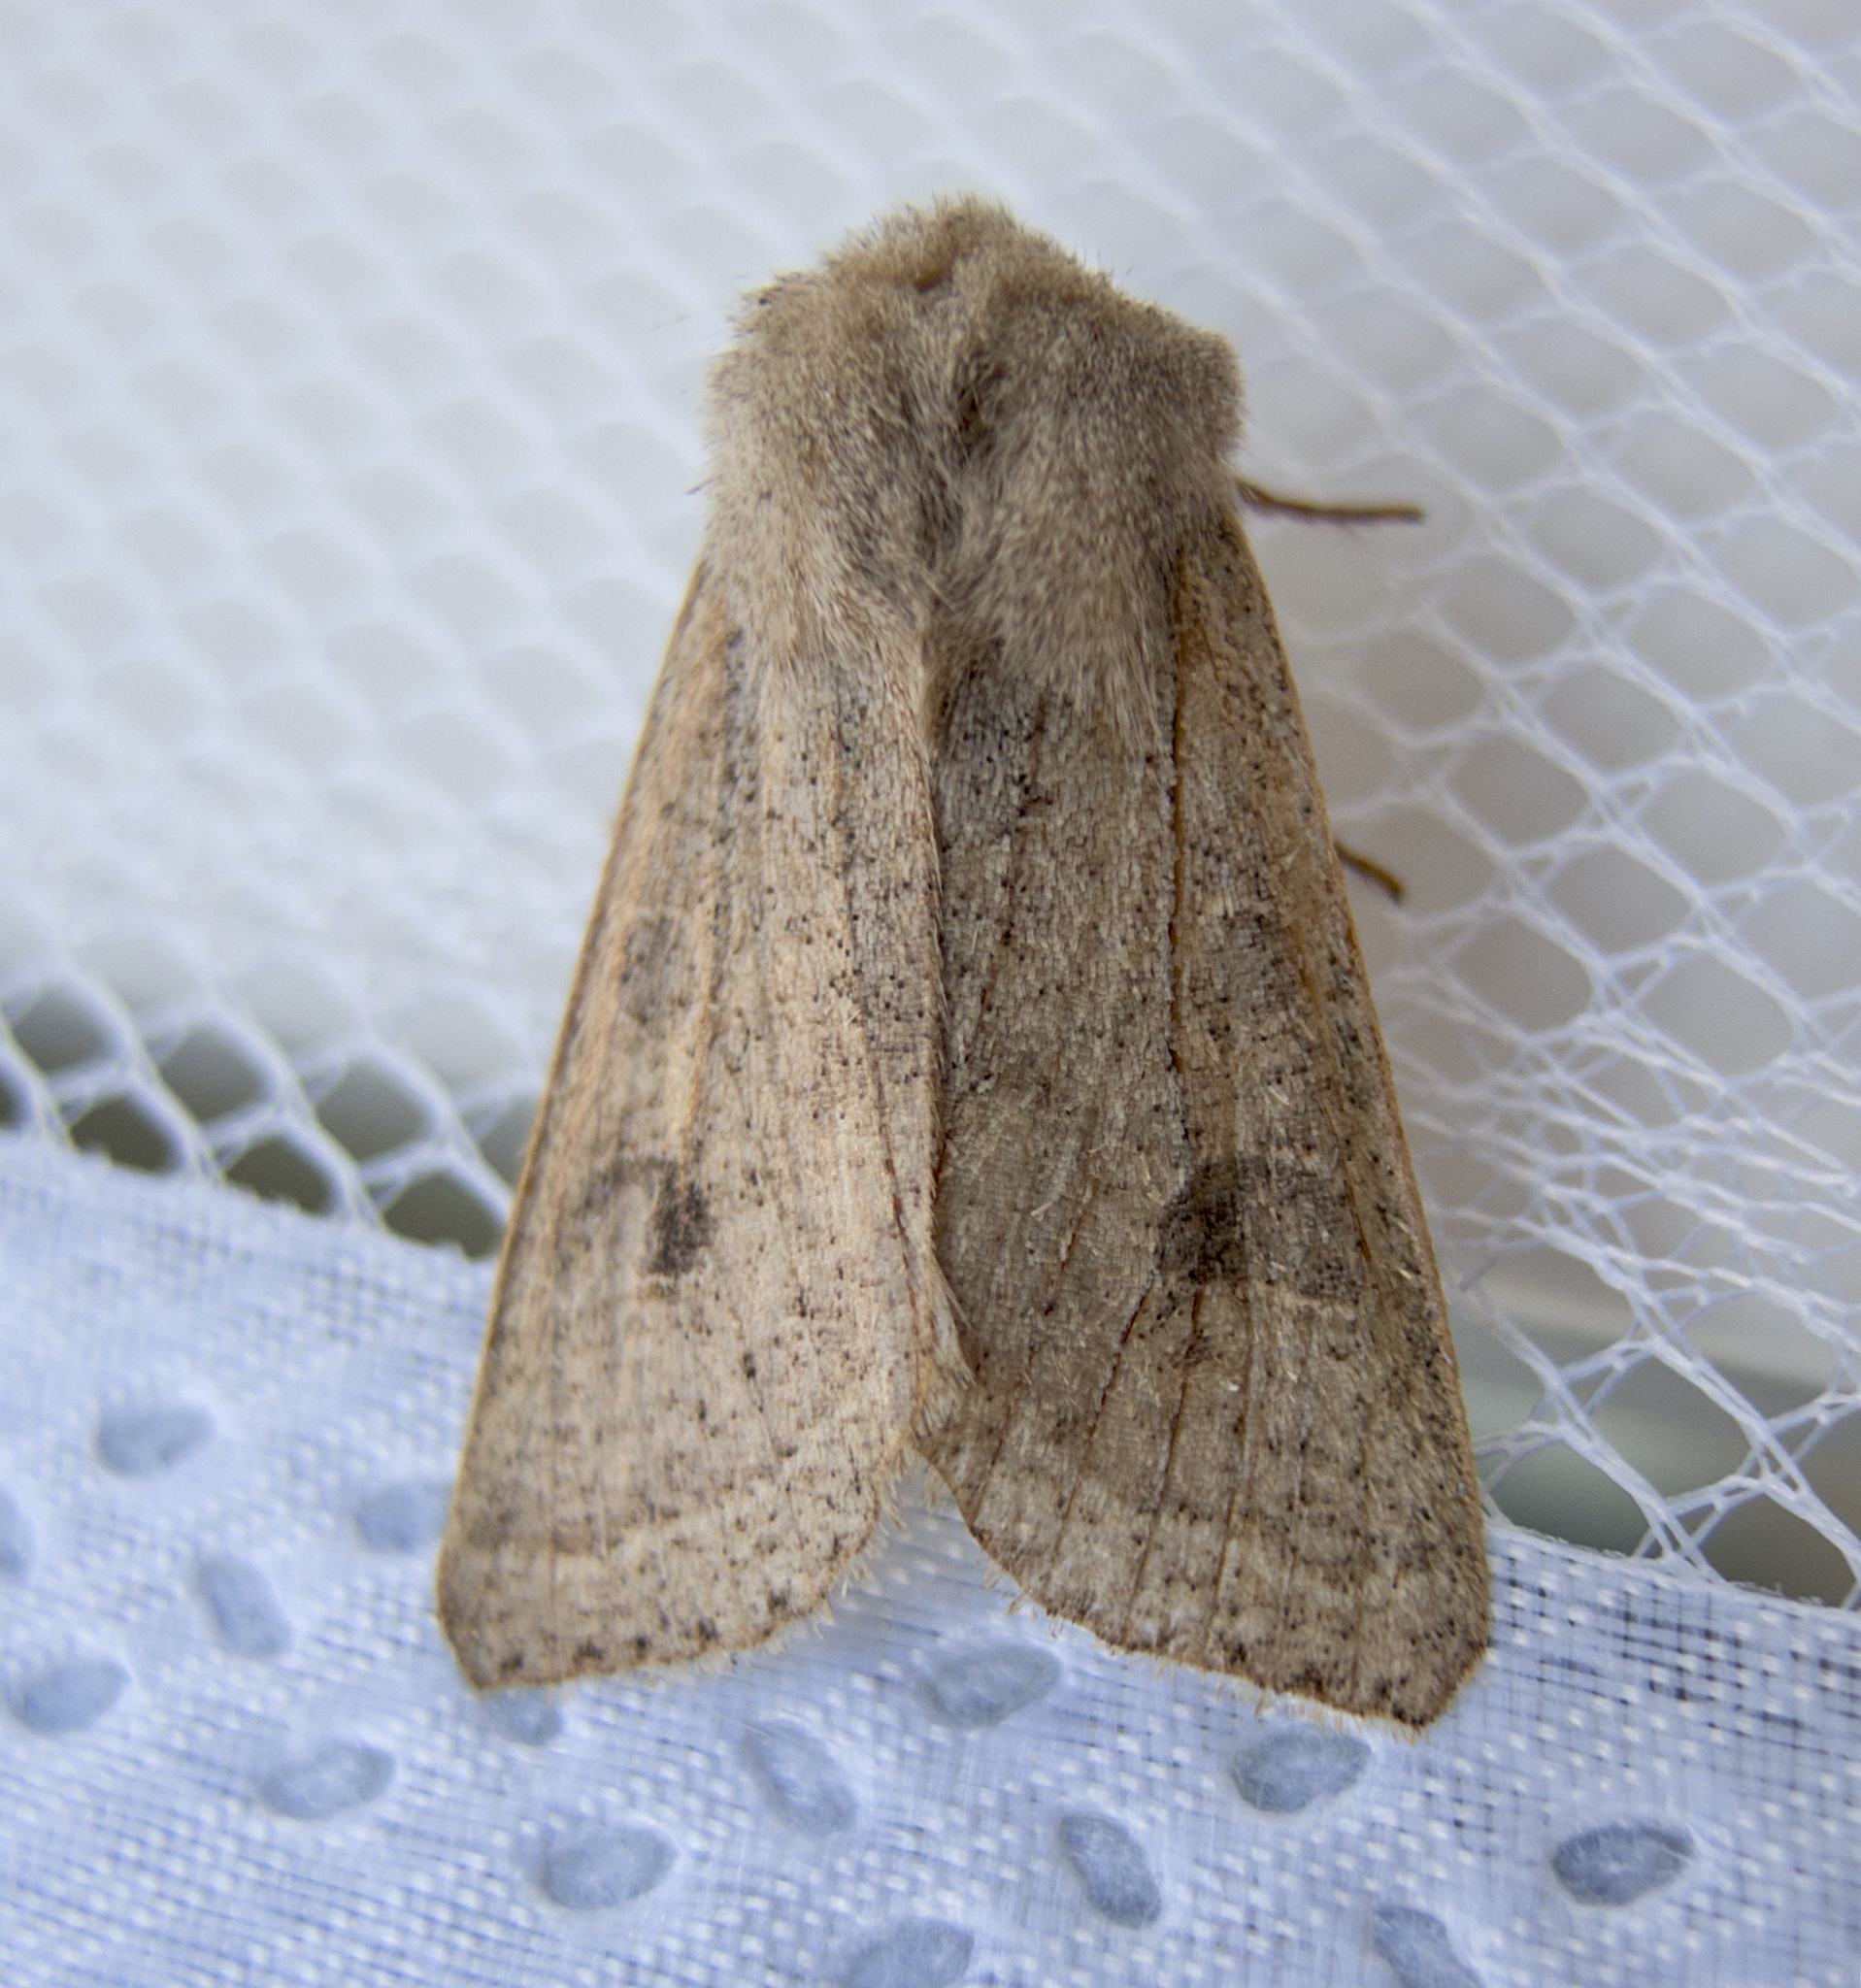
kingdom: Animalia
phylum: Arthropoda
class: Insecta
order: Lepidoptera
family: Noctuidae
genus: Orthosia
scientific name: Orthosia gracilis
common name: Powdered quaker
